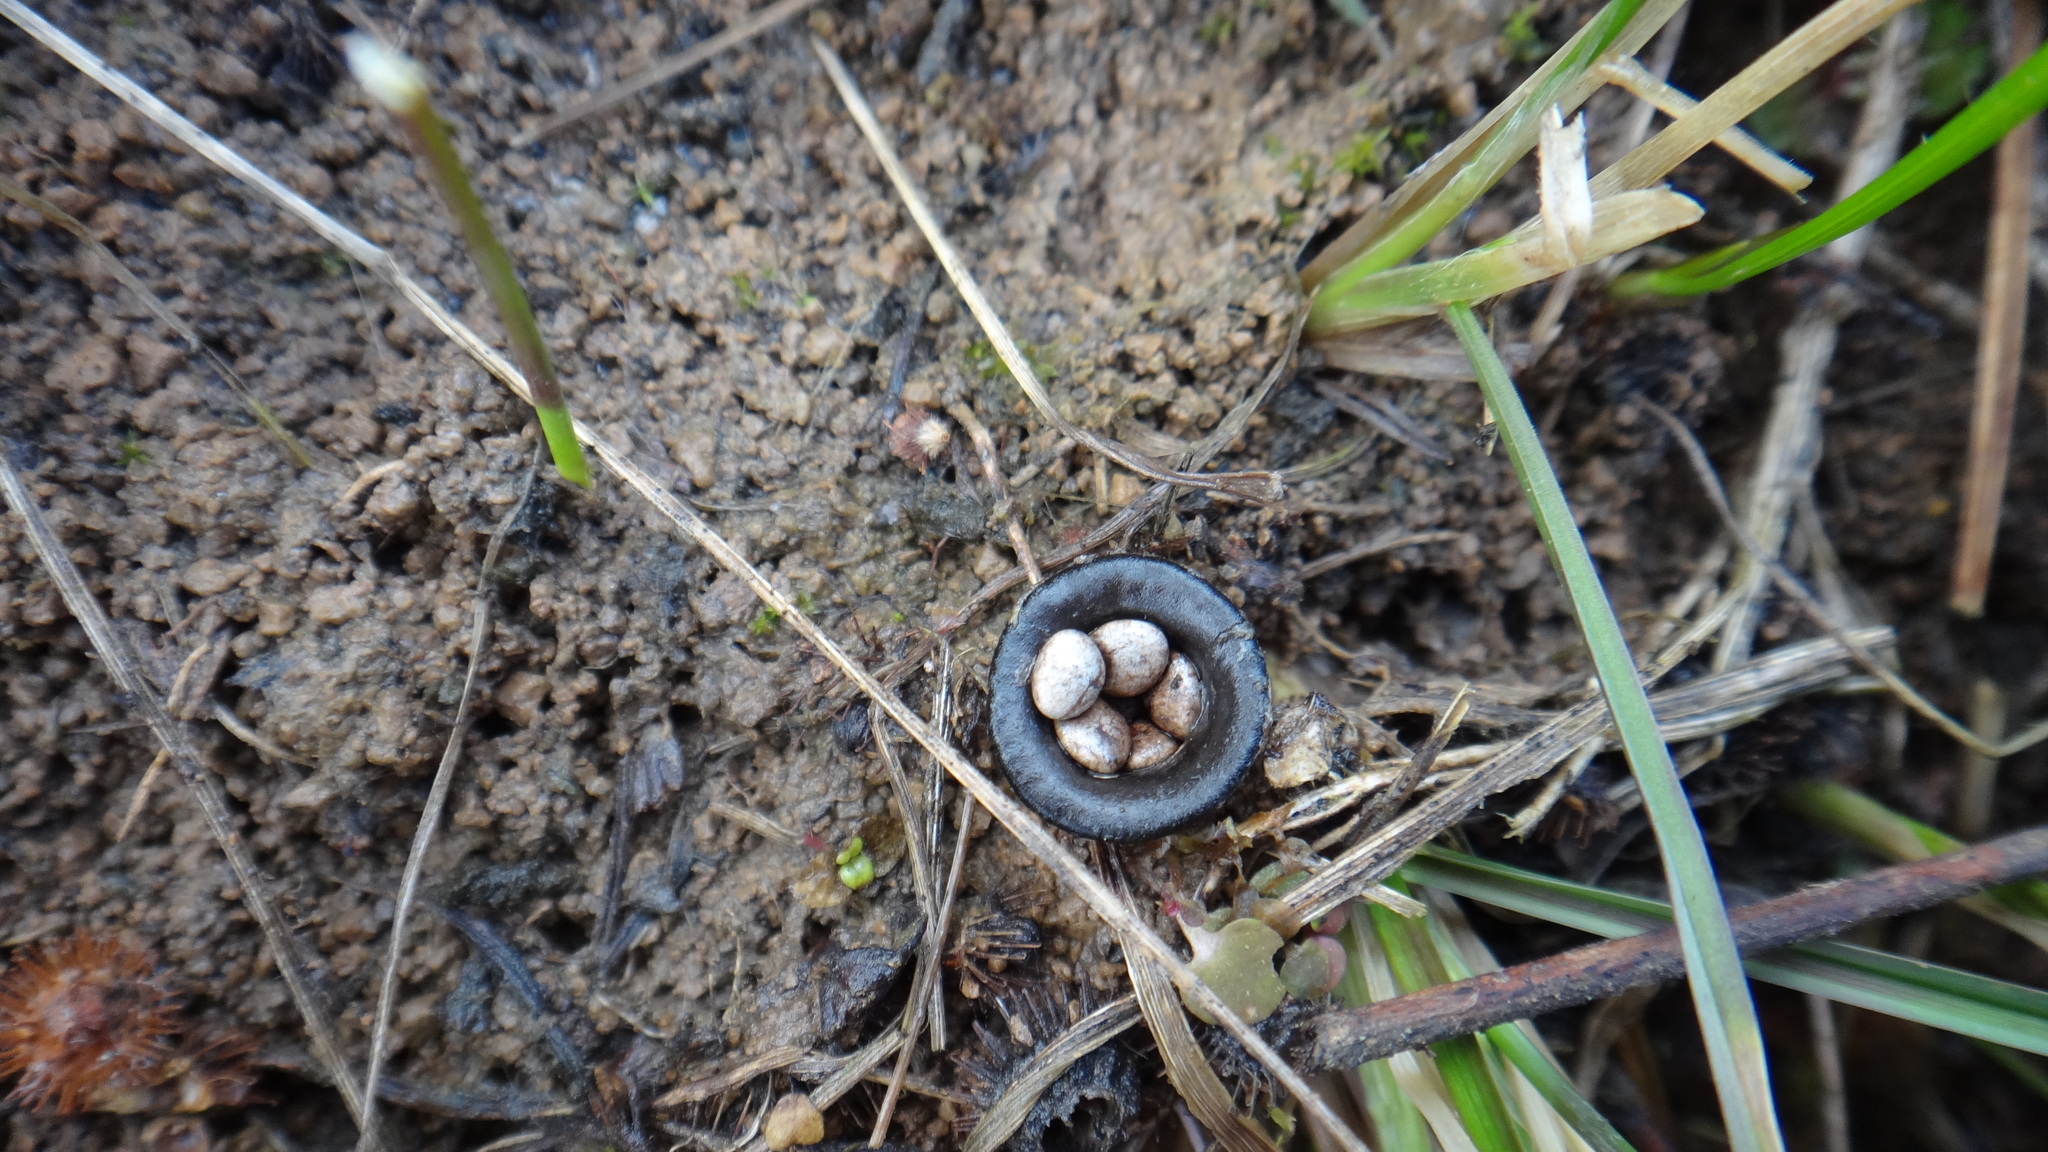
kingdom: Fungi
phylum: Basidiomycota
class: Agaricomycetes
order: Agaricales
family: Agaricaceae
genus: Cyathus
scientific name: Cyathus olla
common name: Field bird's nest
